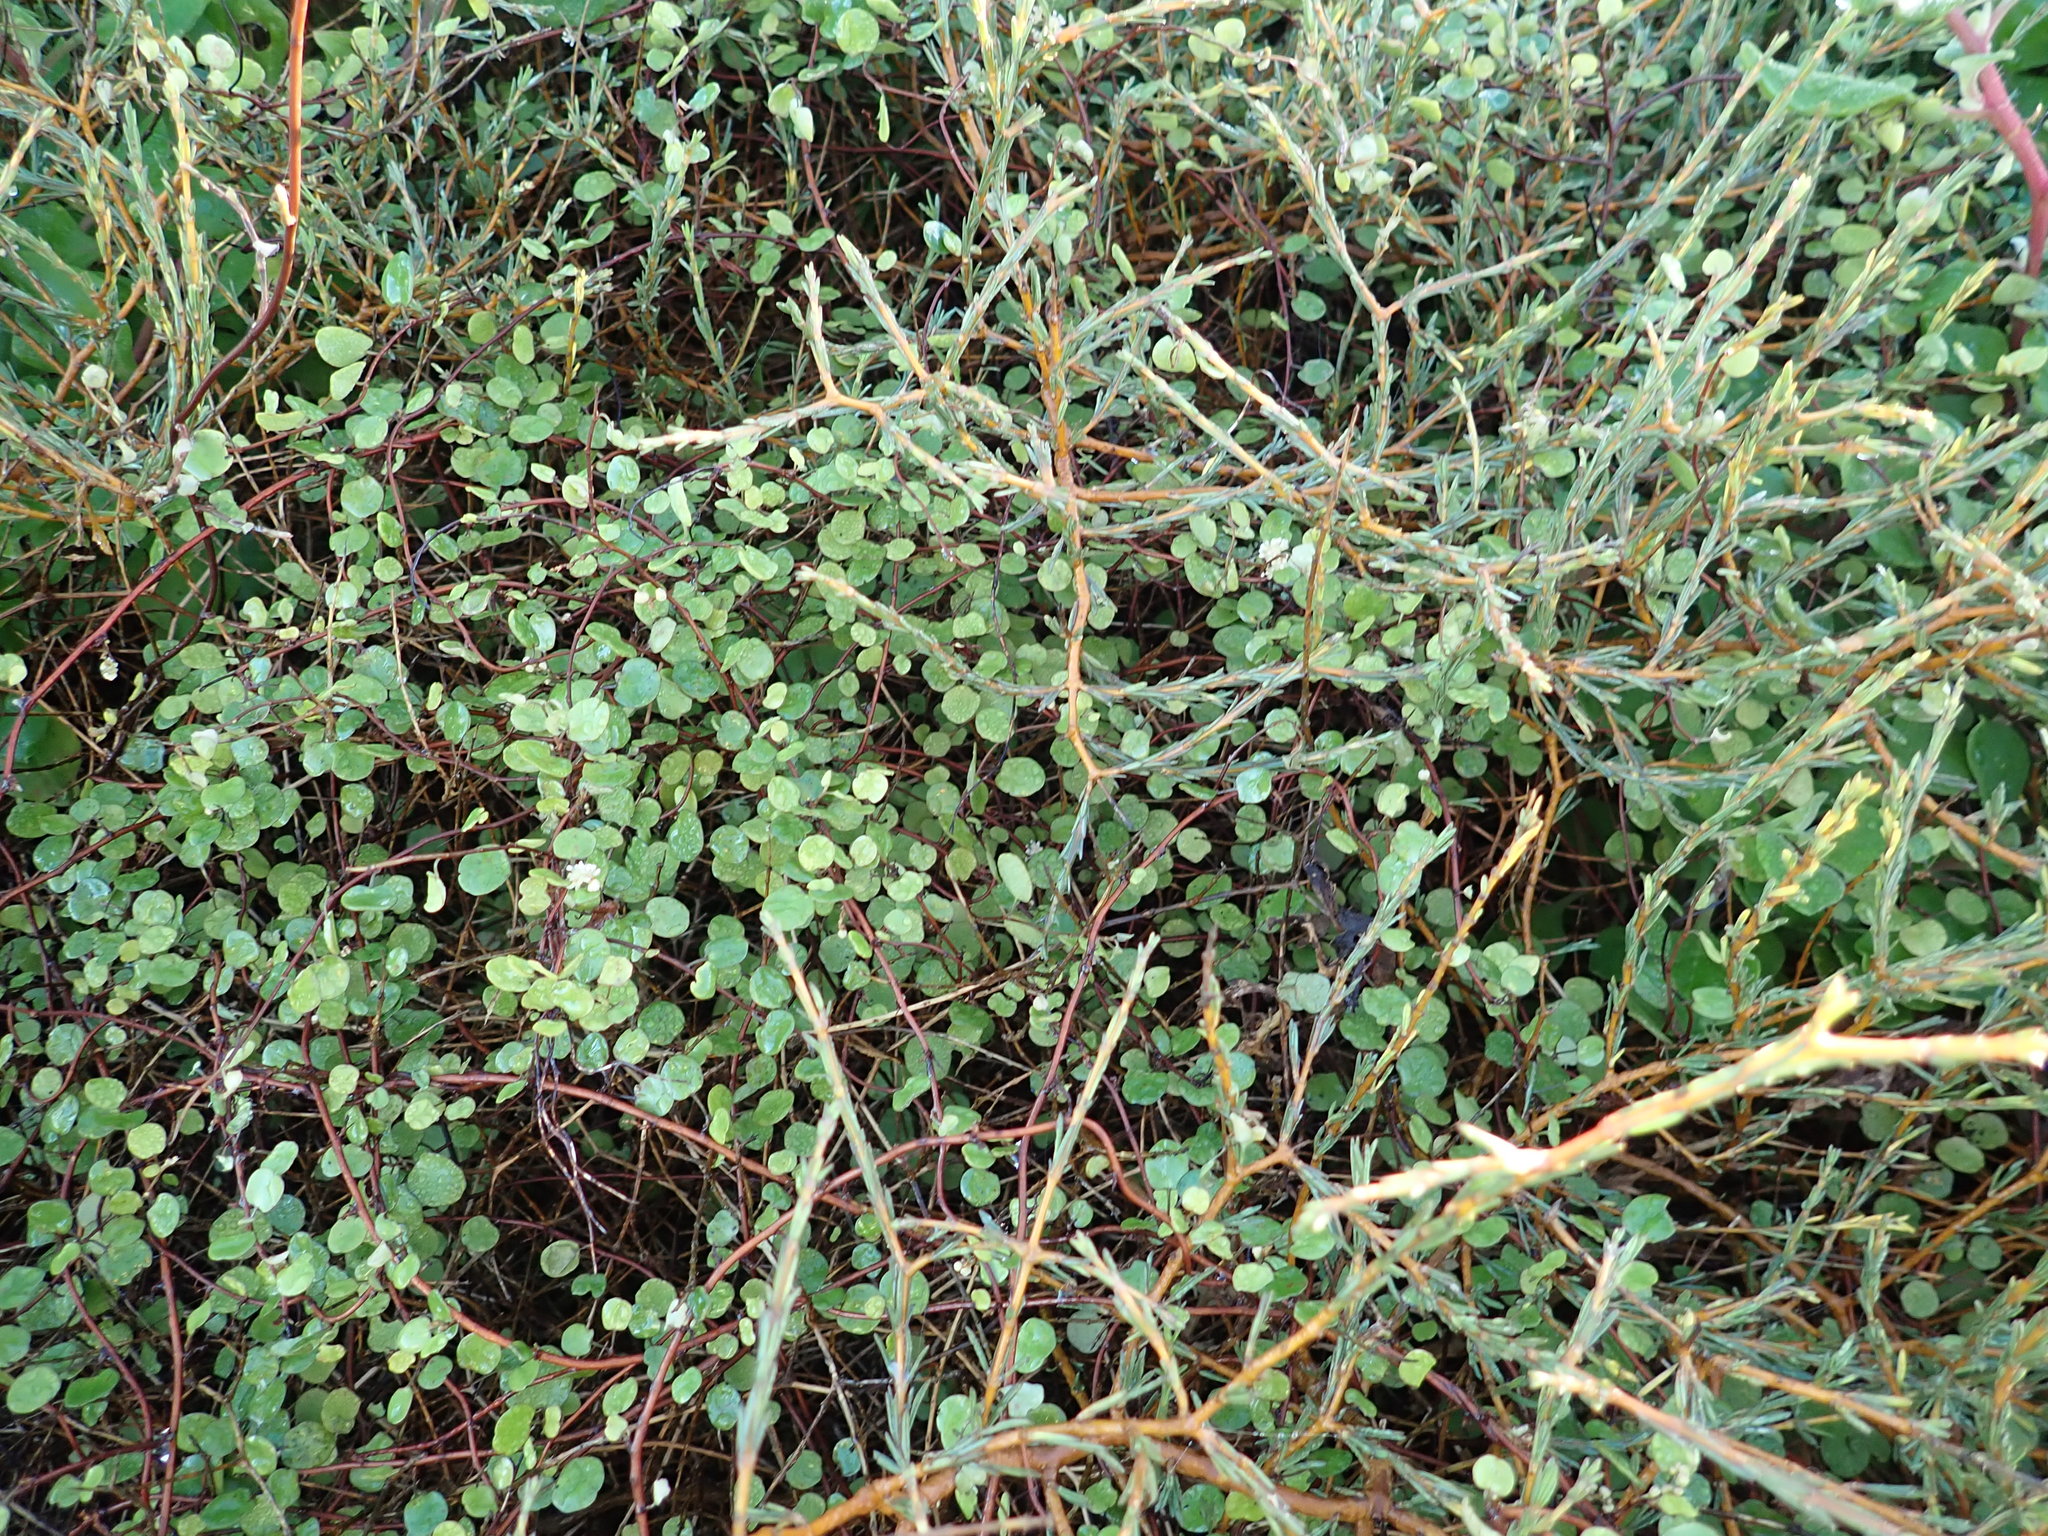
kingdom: Plantae
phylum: Tracheophyta
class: Magnoliopsida
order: Caryophyllales
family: Polygonaceae
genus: Muehlenbeckia
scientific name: Muehlenbeckia complexa
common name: Wireplant
